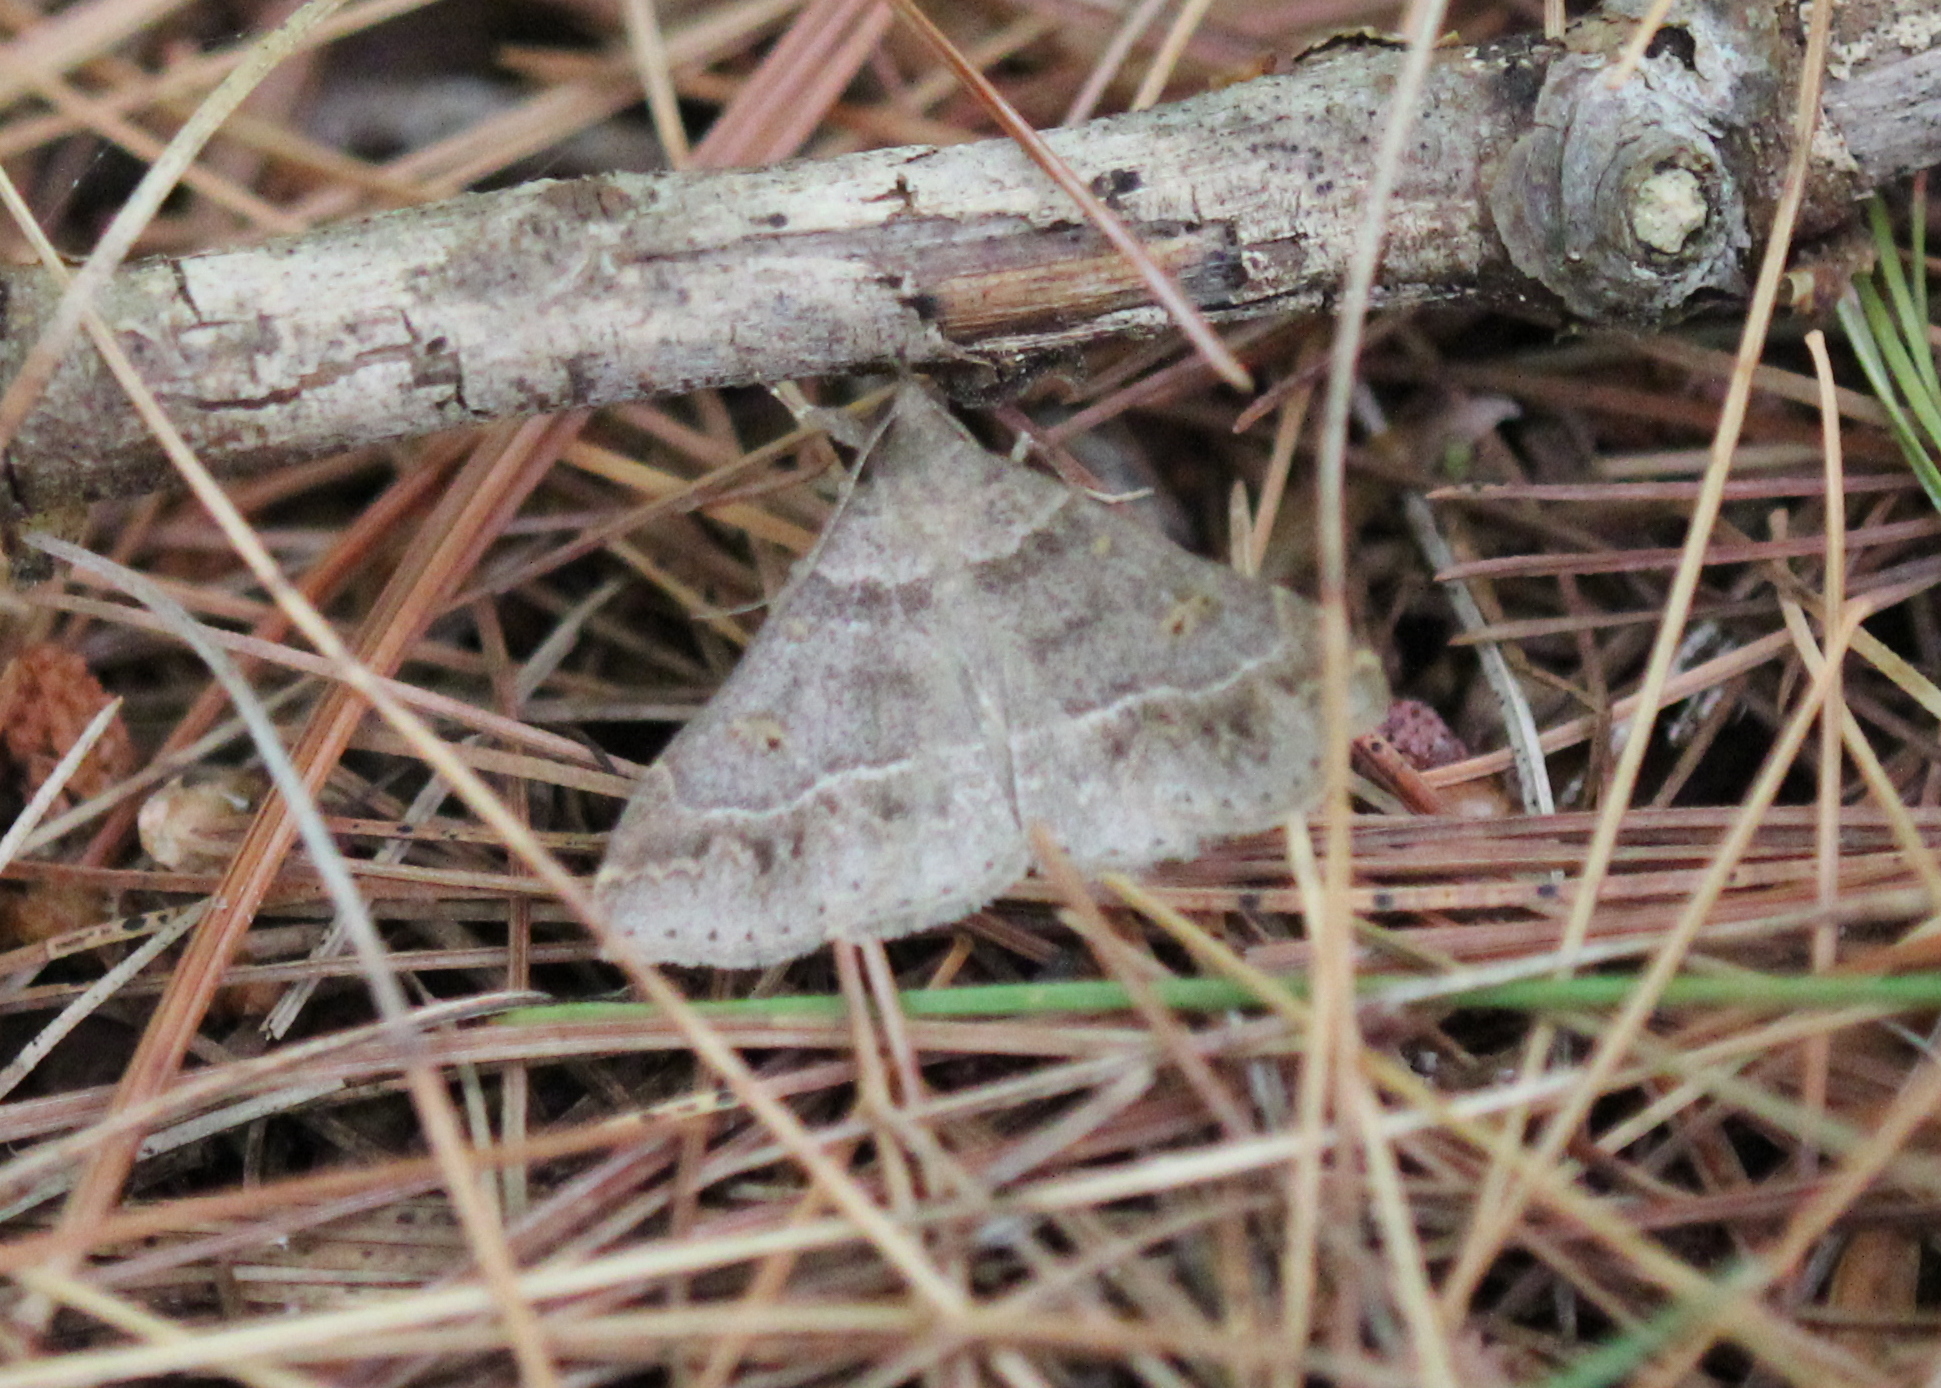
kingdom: Animalia
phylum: Arthropoda
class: Insecta
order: Lepidoptera
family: Erebidae
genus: Renia
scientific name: Renia flavipunctalis
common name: Yellow-spotted renia moth
